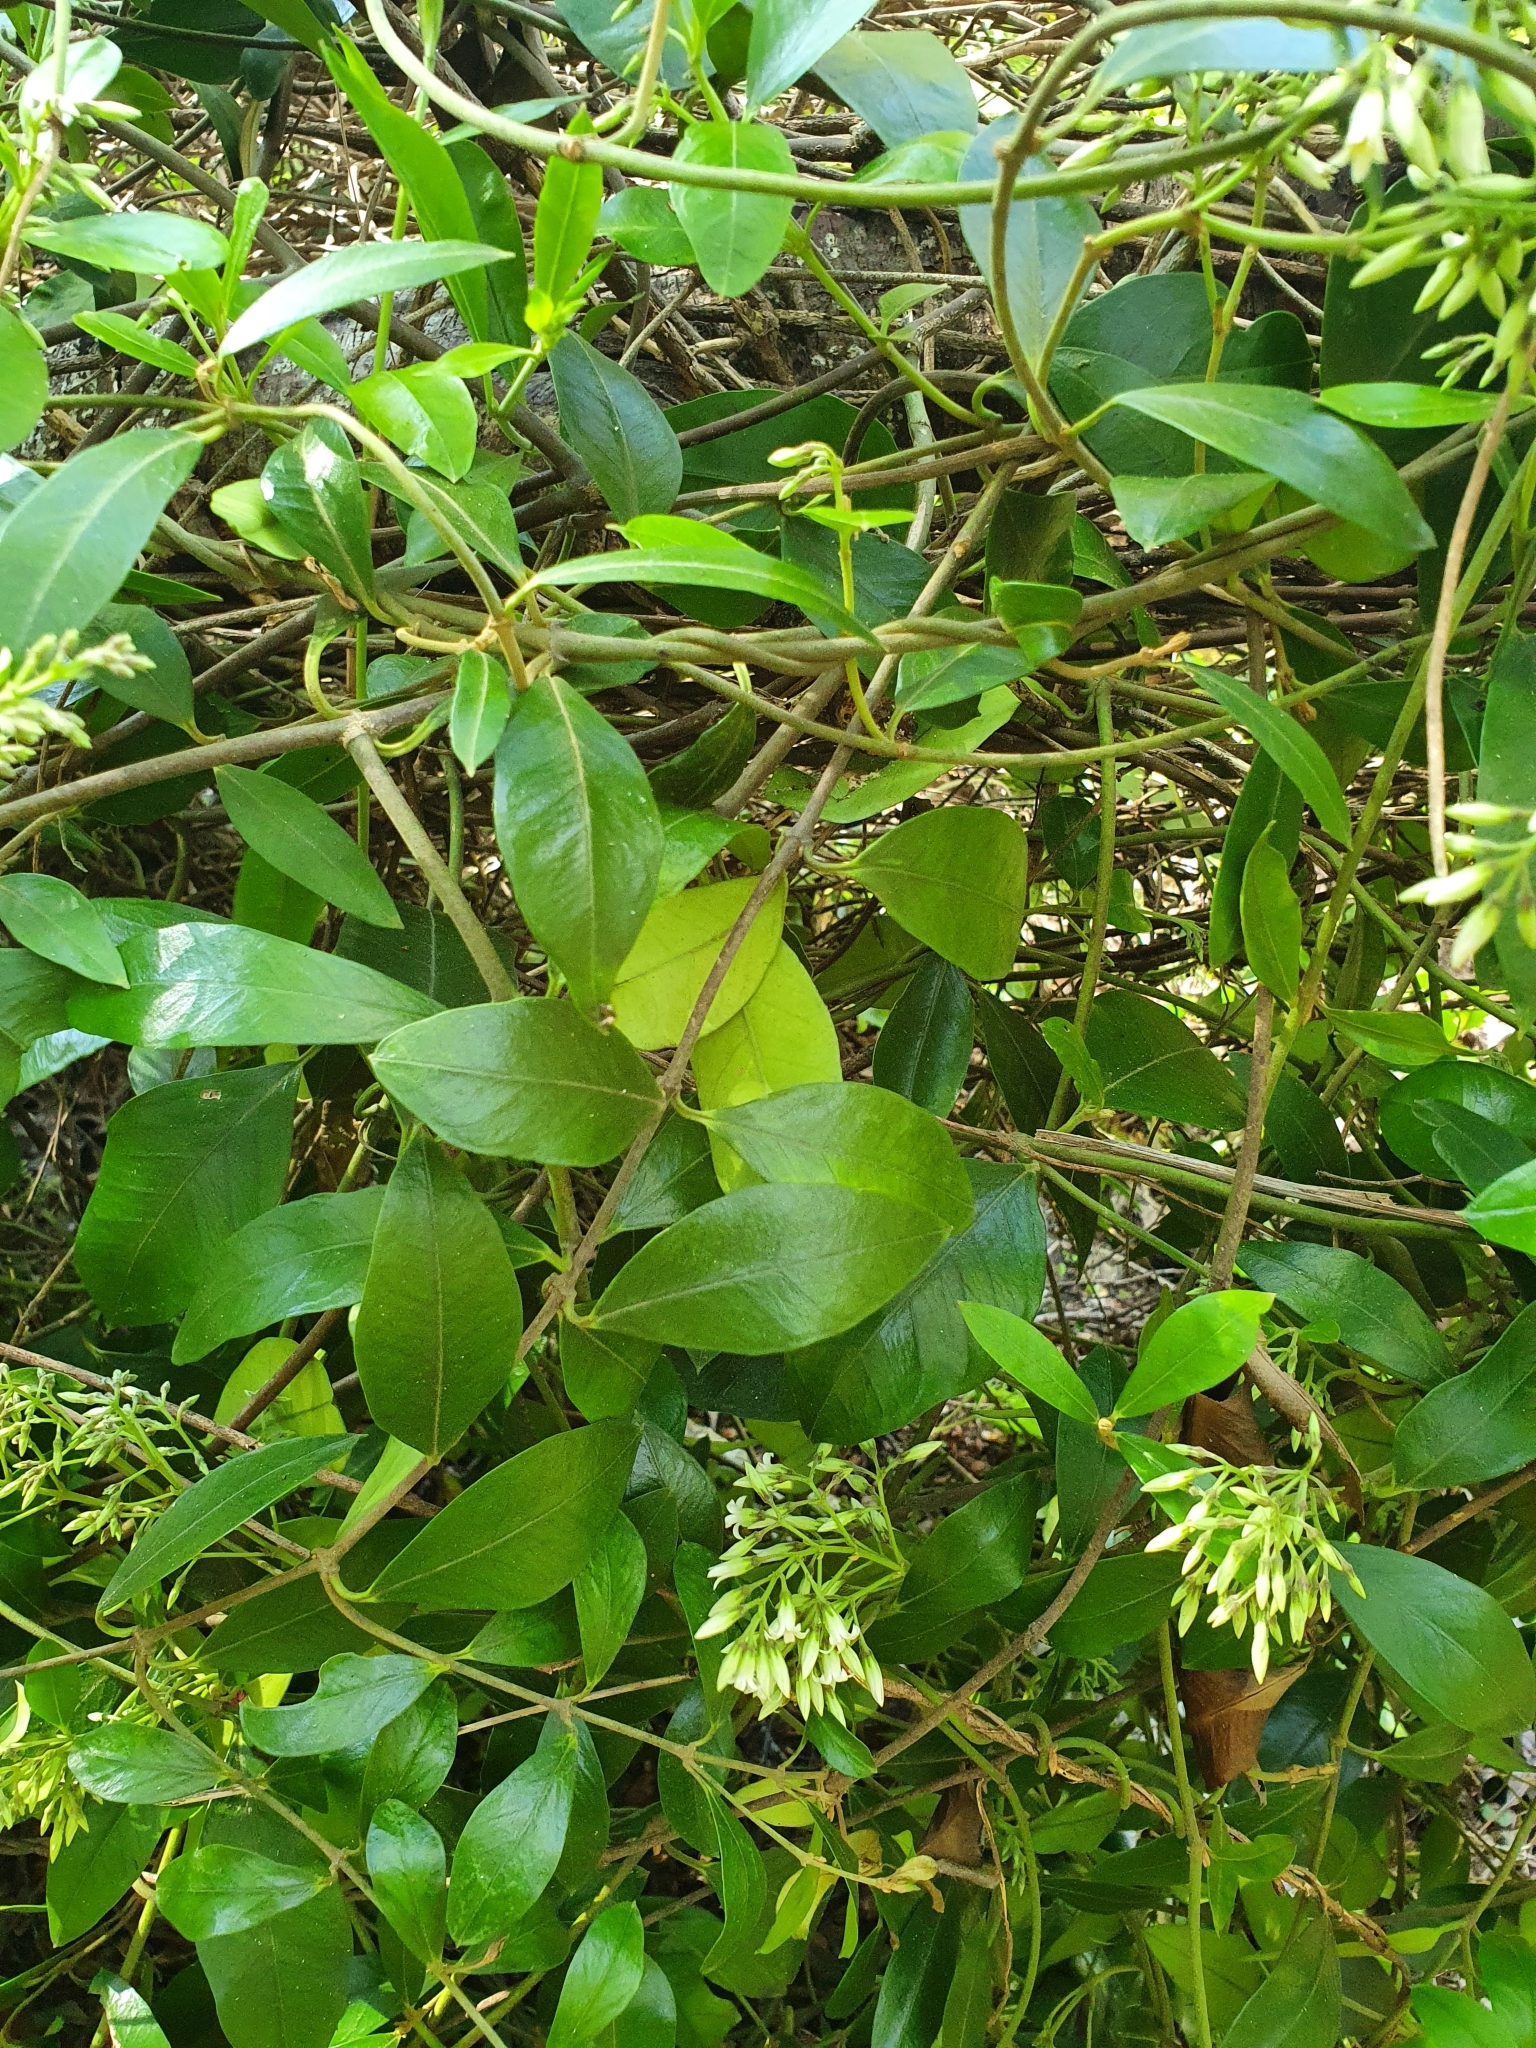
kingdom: Plantae
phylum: Tracheophyta
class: Magnoliopsida
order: Gentianales
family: Apocynaceae
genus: Parsonsia
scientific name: Parsonsia heterophylla
